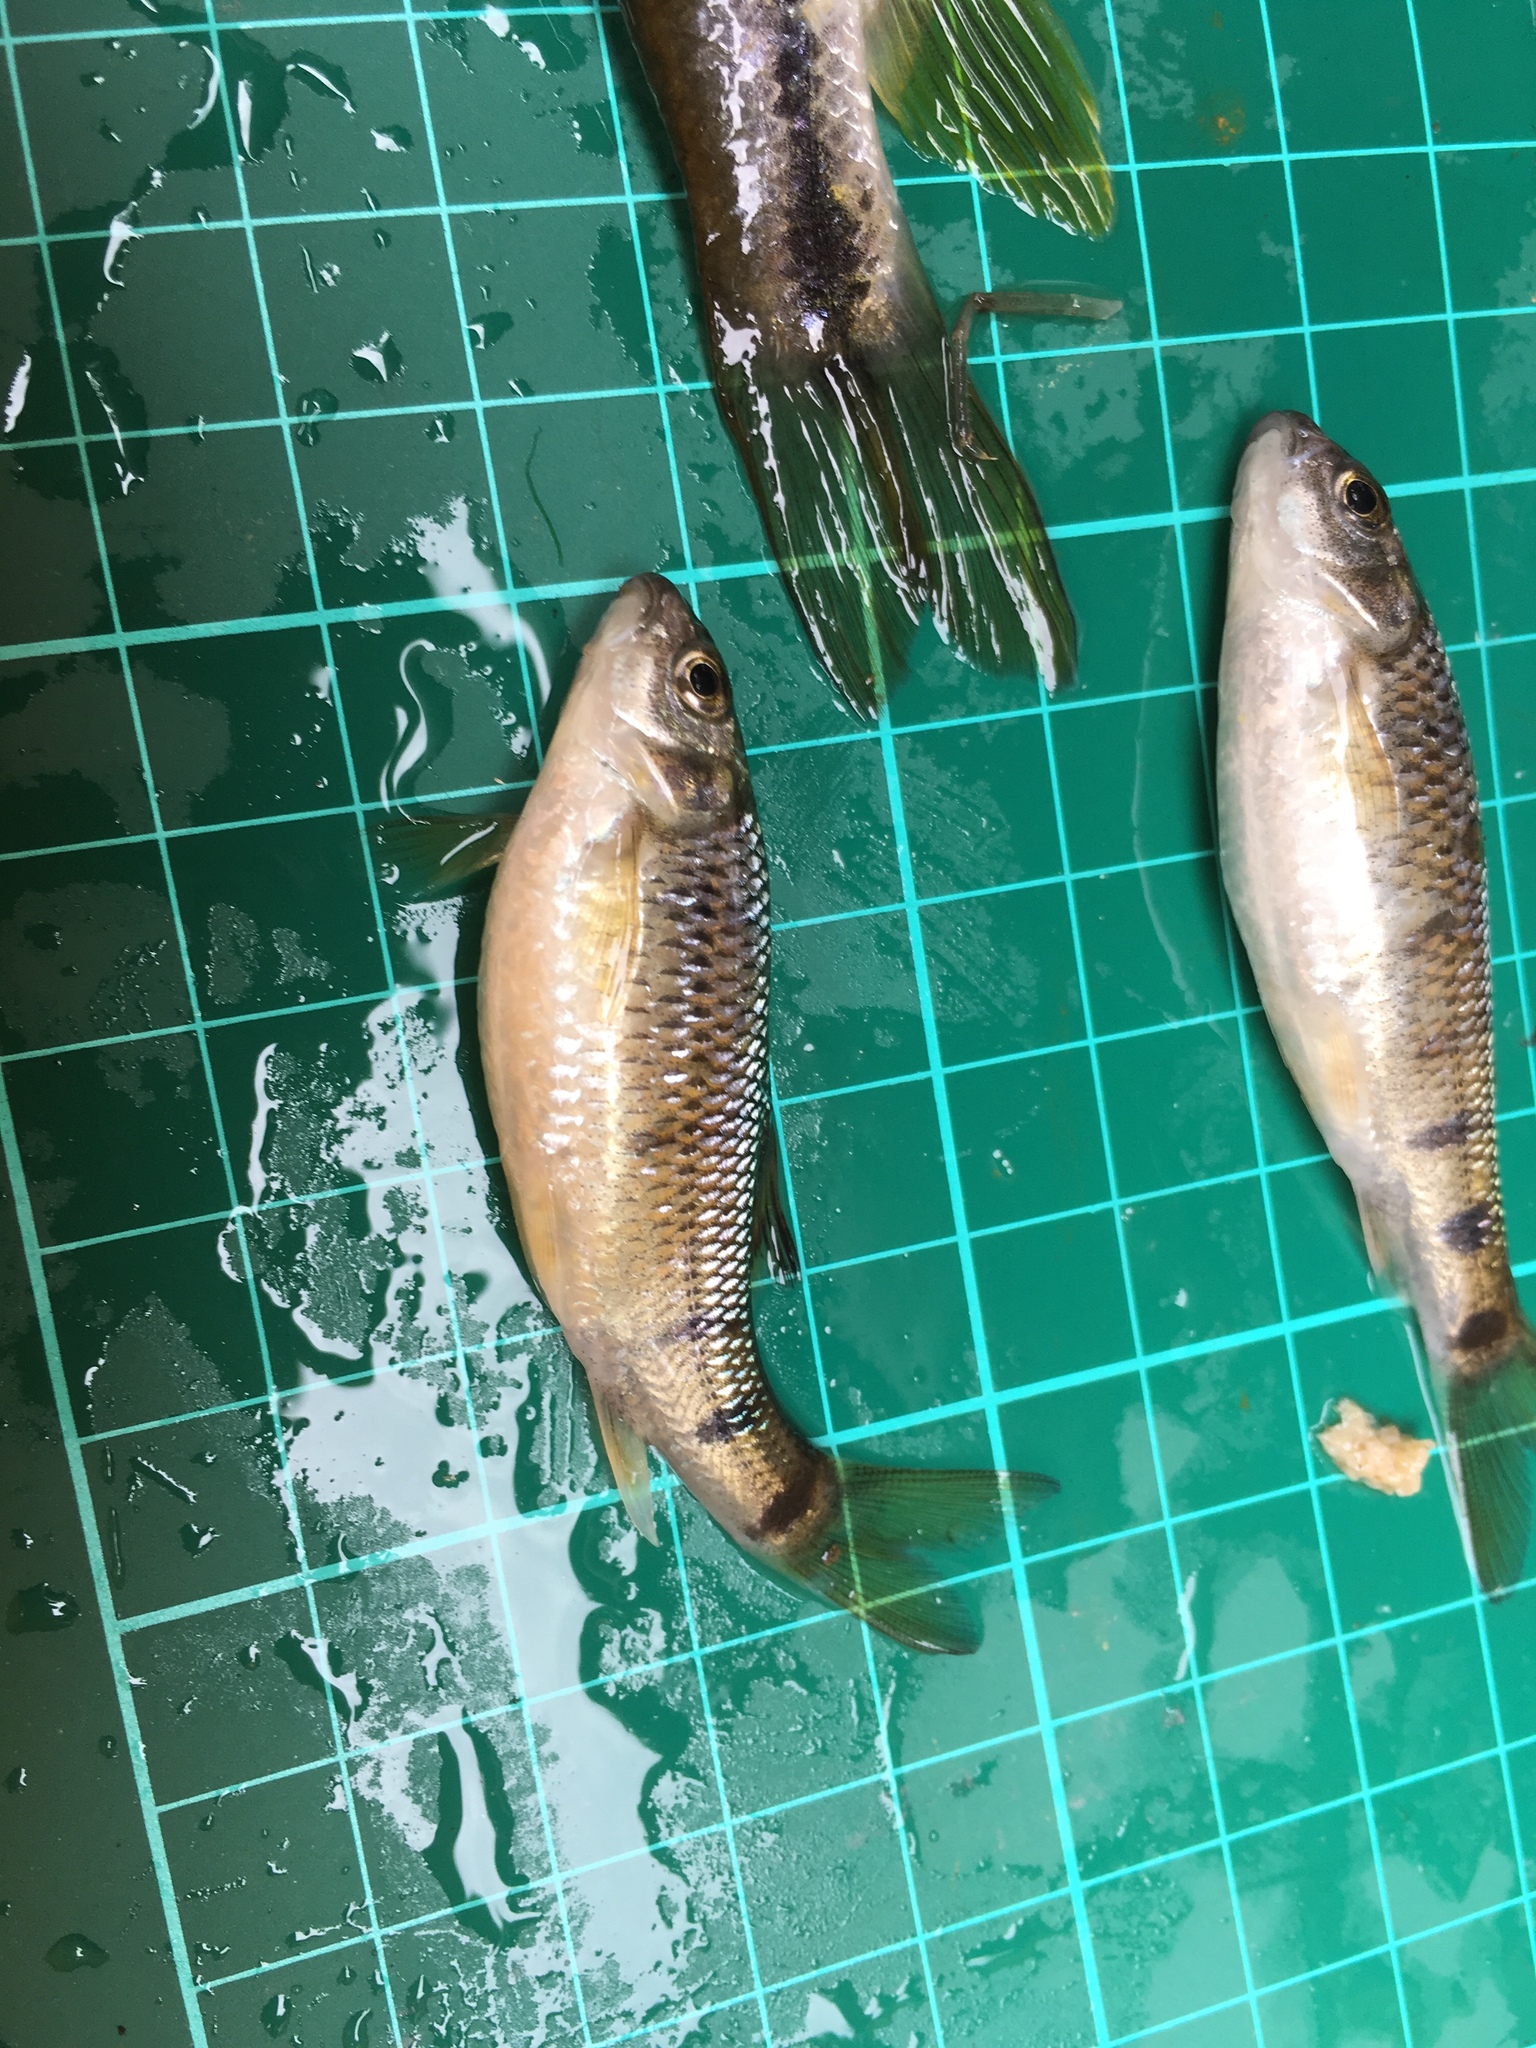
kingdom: Animalia
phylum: Chordata
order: Cypriniformes
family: Cyprinidae
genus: Acrossocheilus
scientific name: Acrossocheilus paradoxus
